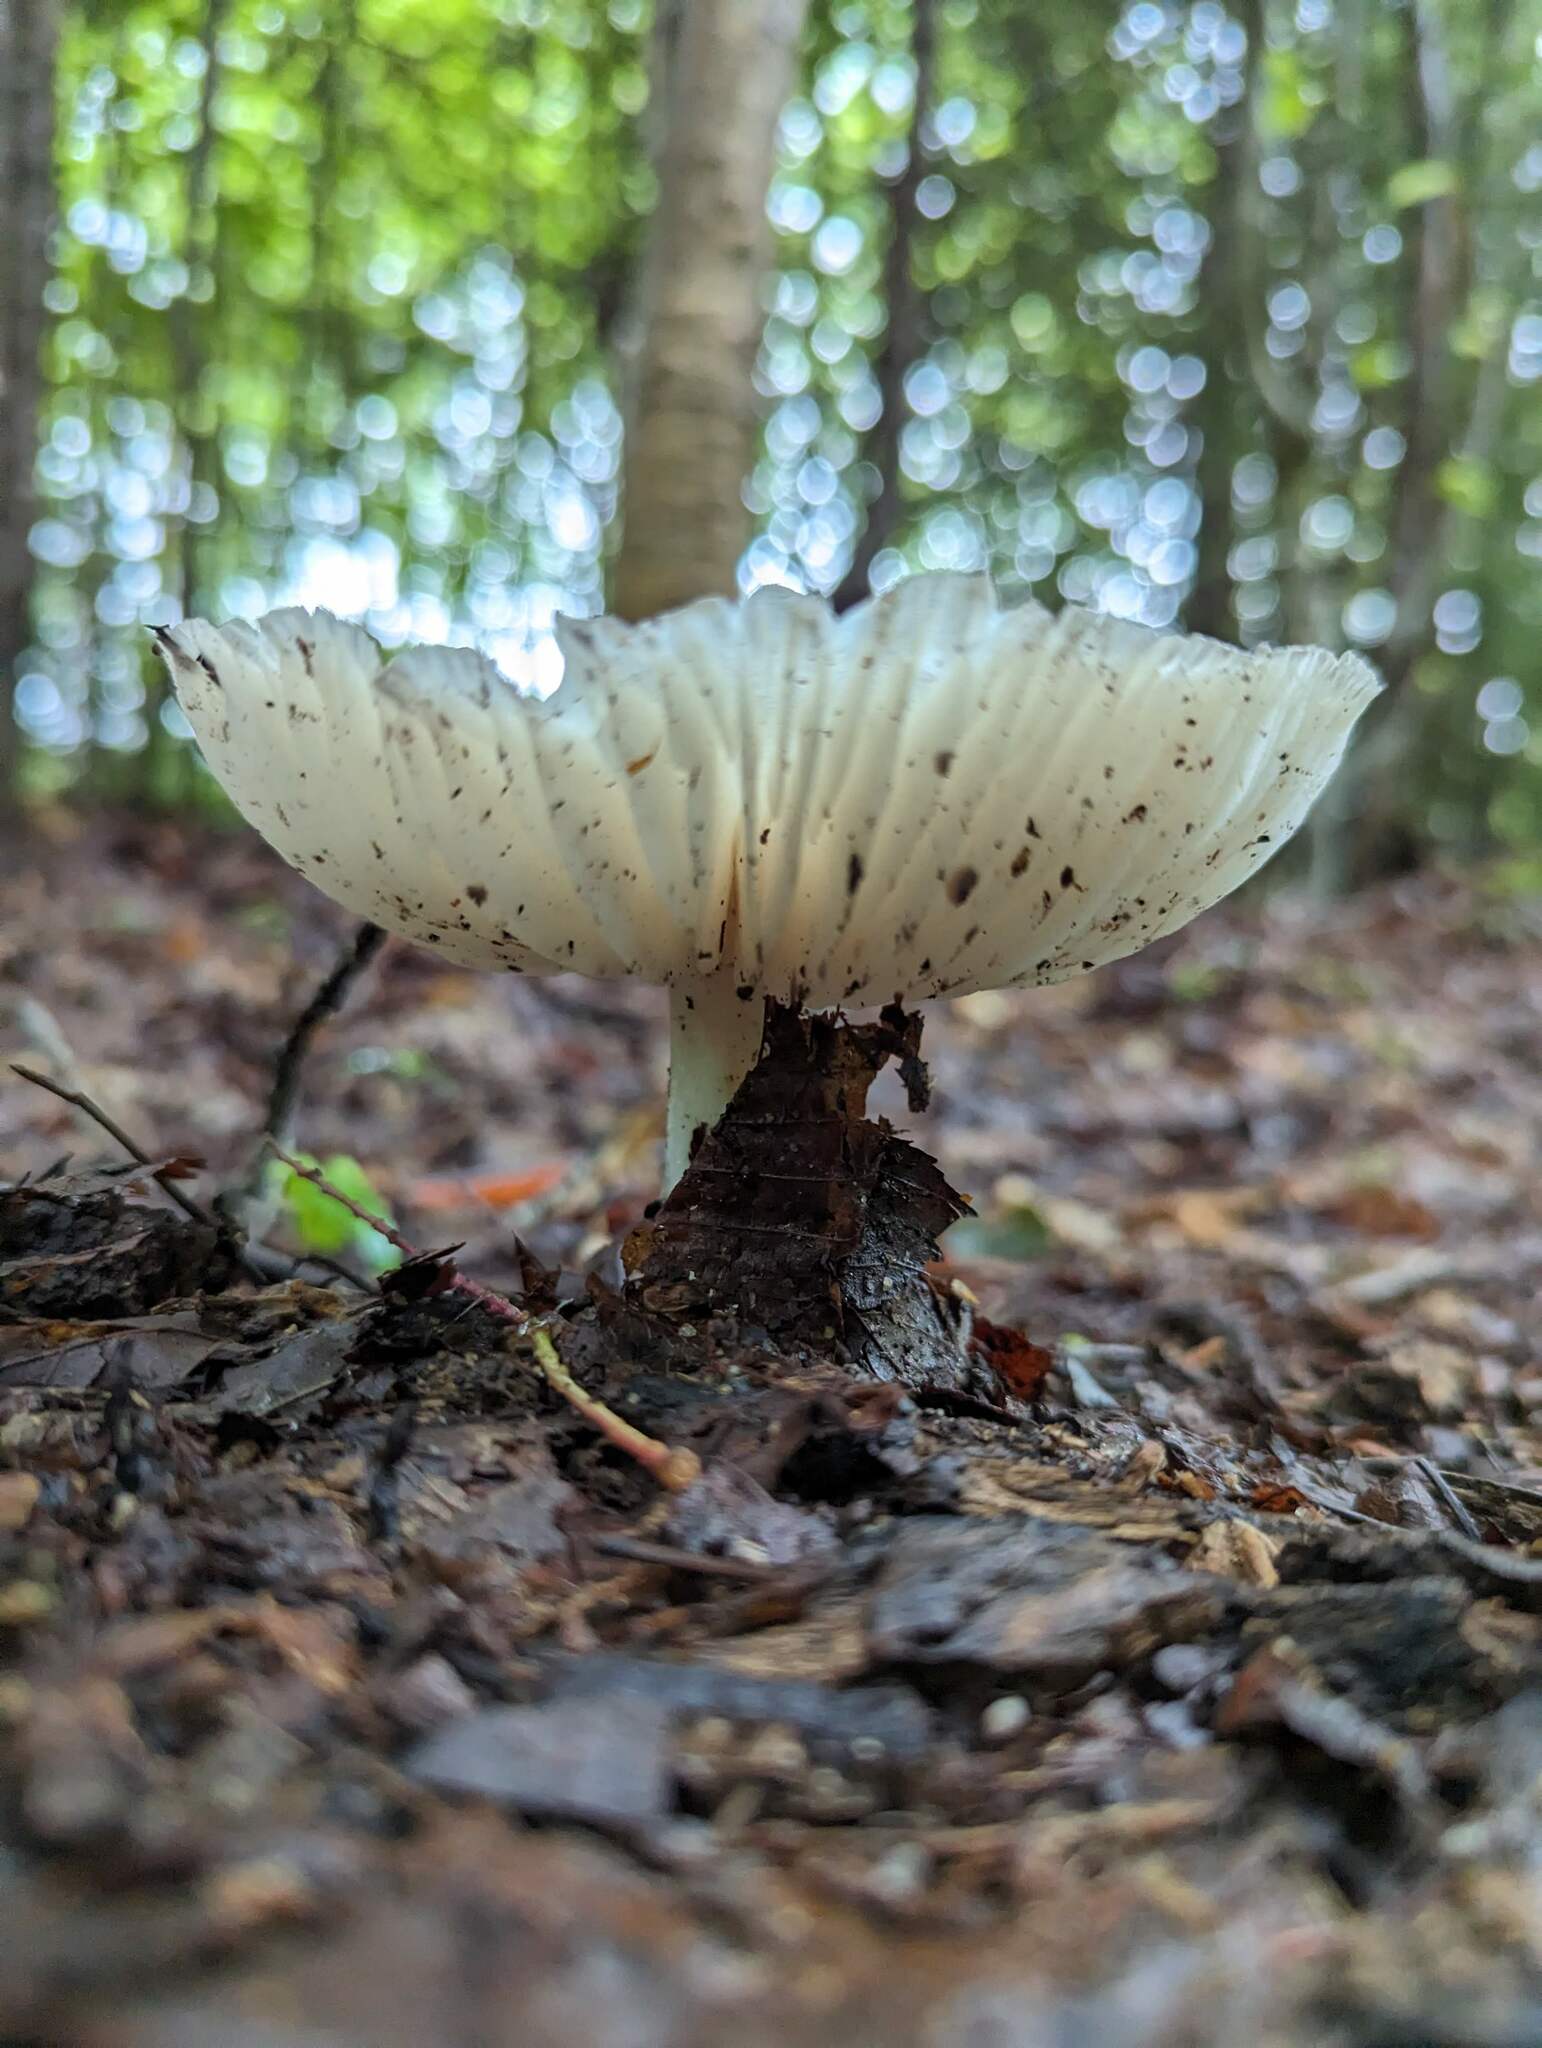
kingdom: Fungi
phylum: Basidiomycota
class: Agaricomycetes
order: Agaricales
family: Tricholomataceae
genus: Megacollybia
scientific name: Megacollybia rodmanii
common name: Eastern american platterful mushroom
